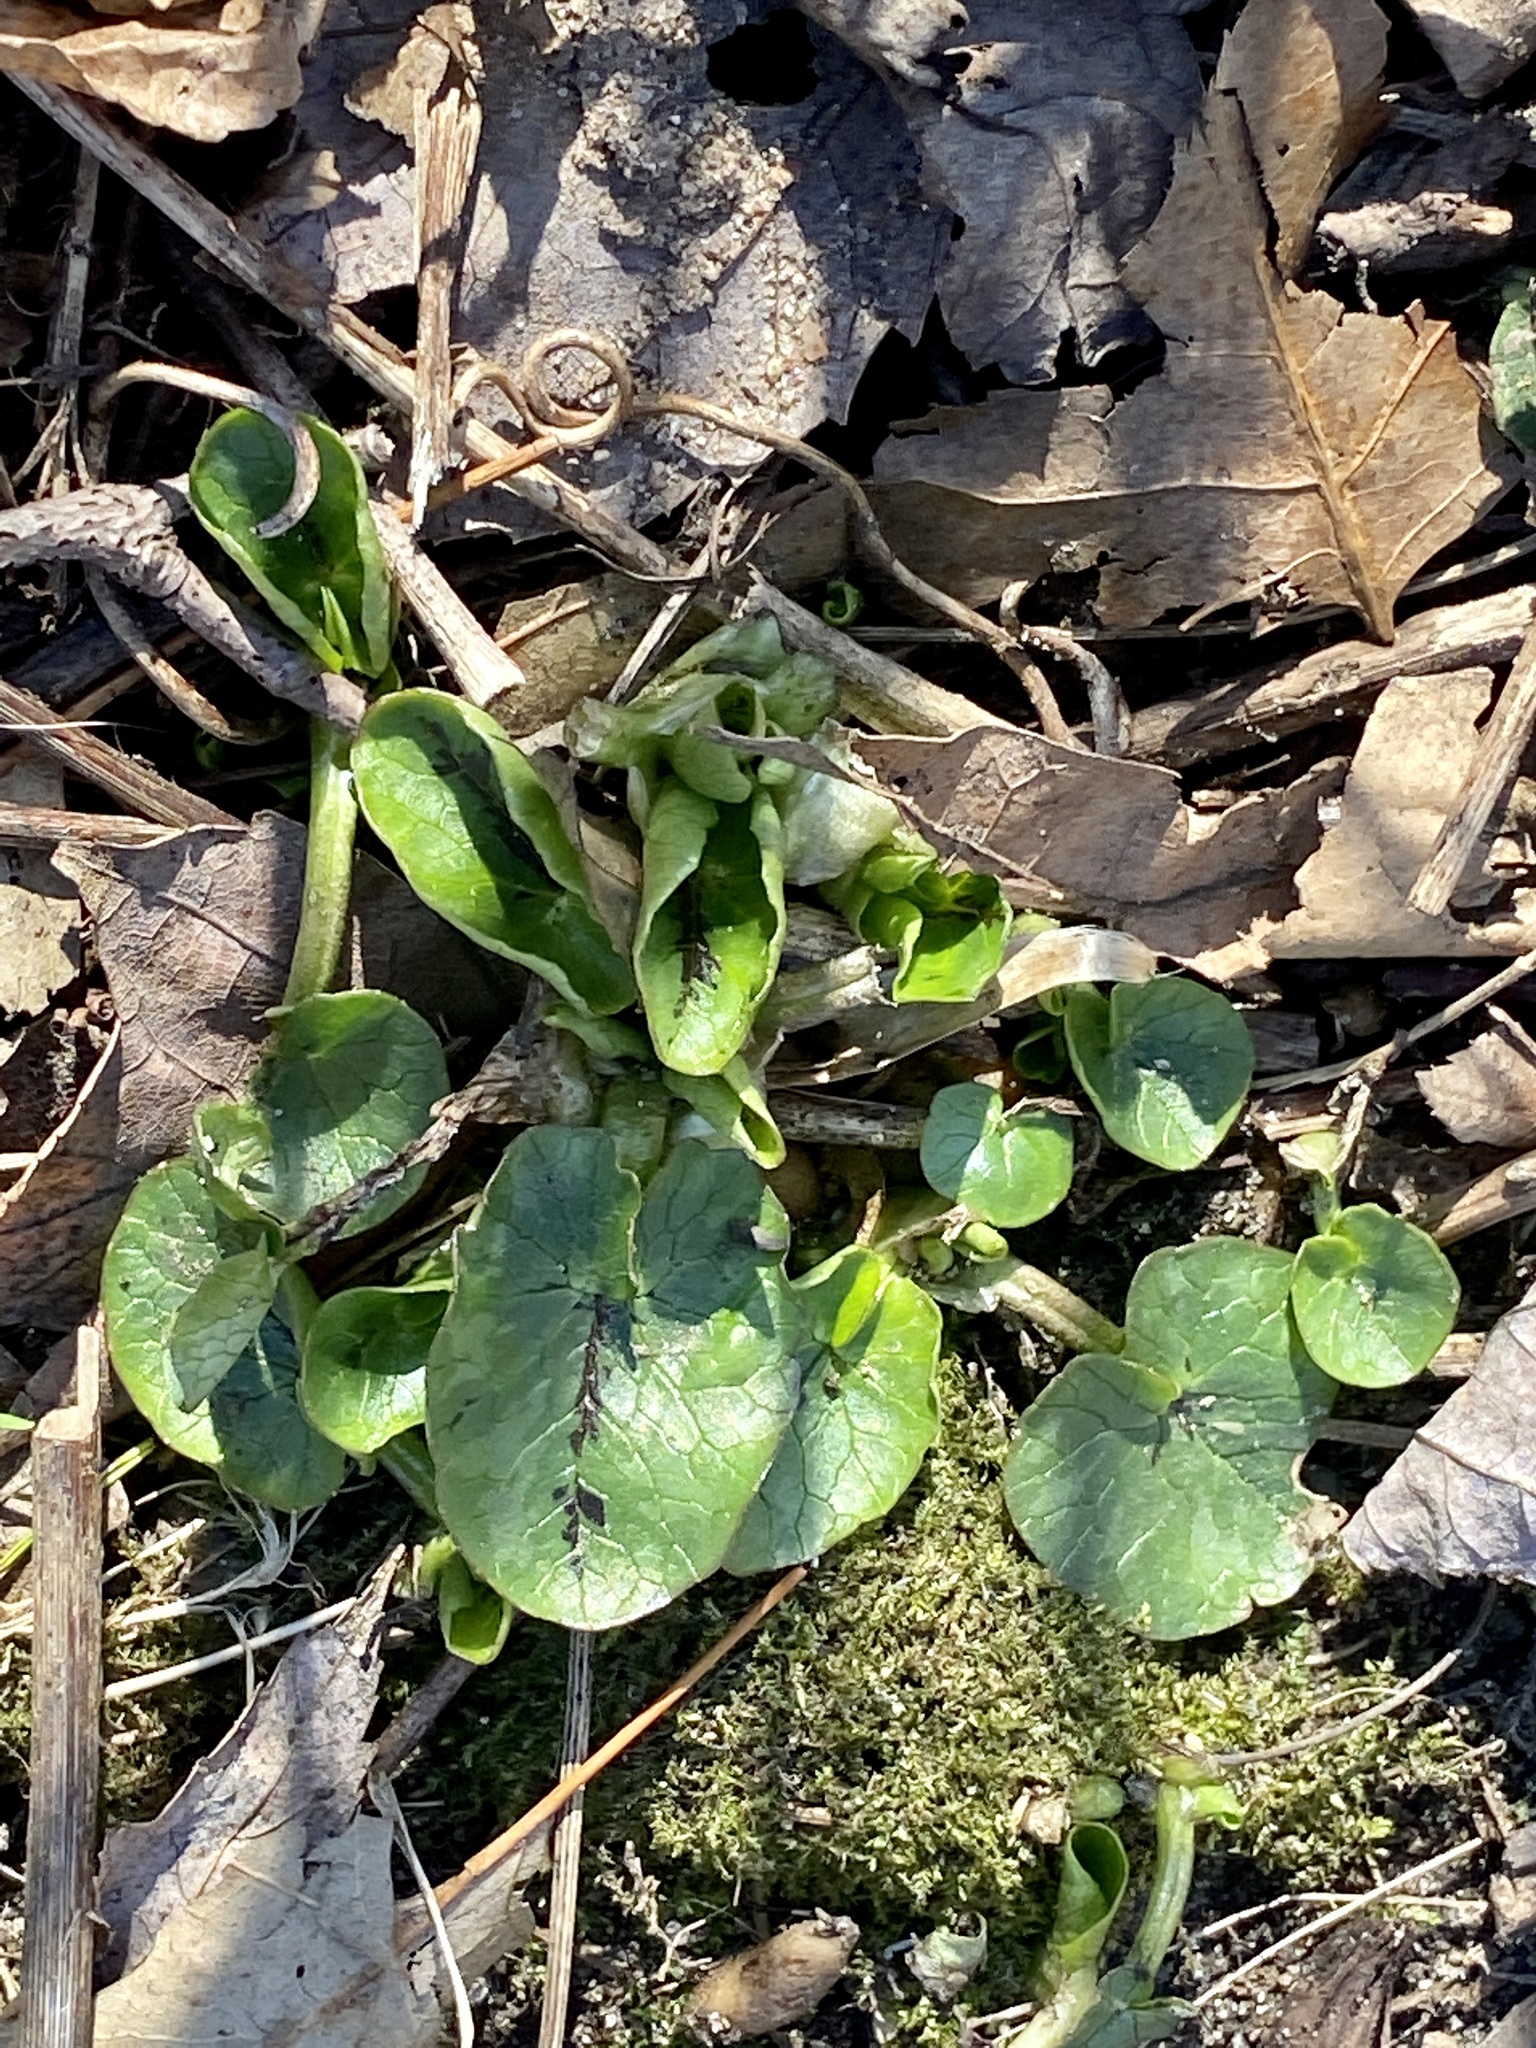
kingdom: Plantae
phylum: Tracheophyta
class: Magnoliopsida
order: Ranunculales
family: Ranunculaceae
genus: Ficaria
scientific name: Ficaria verna
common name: Lesser celandine
